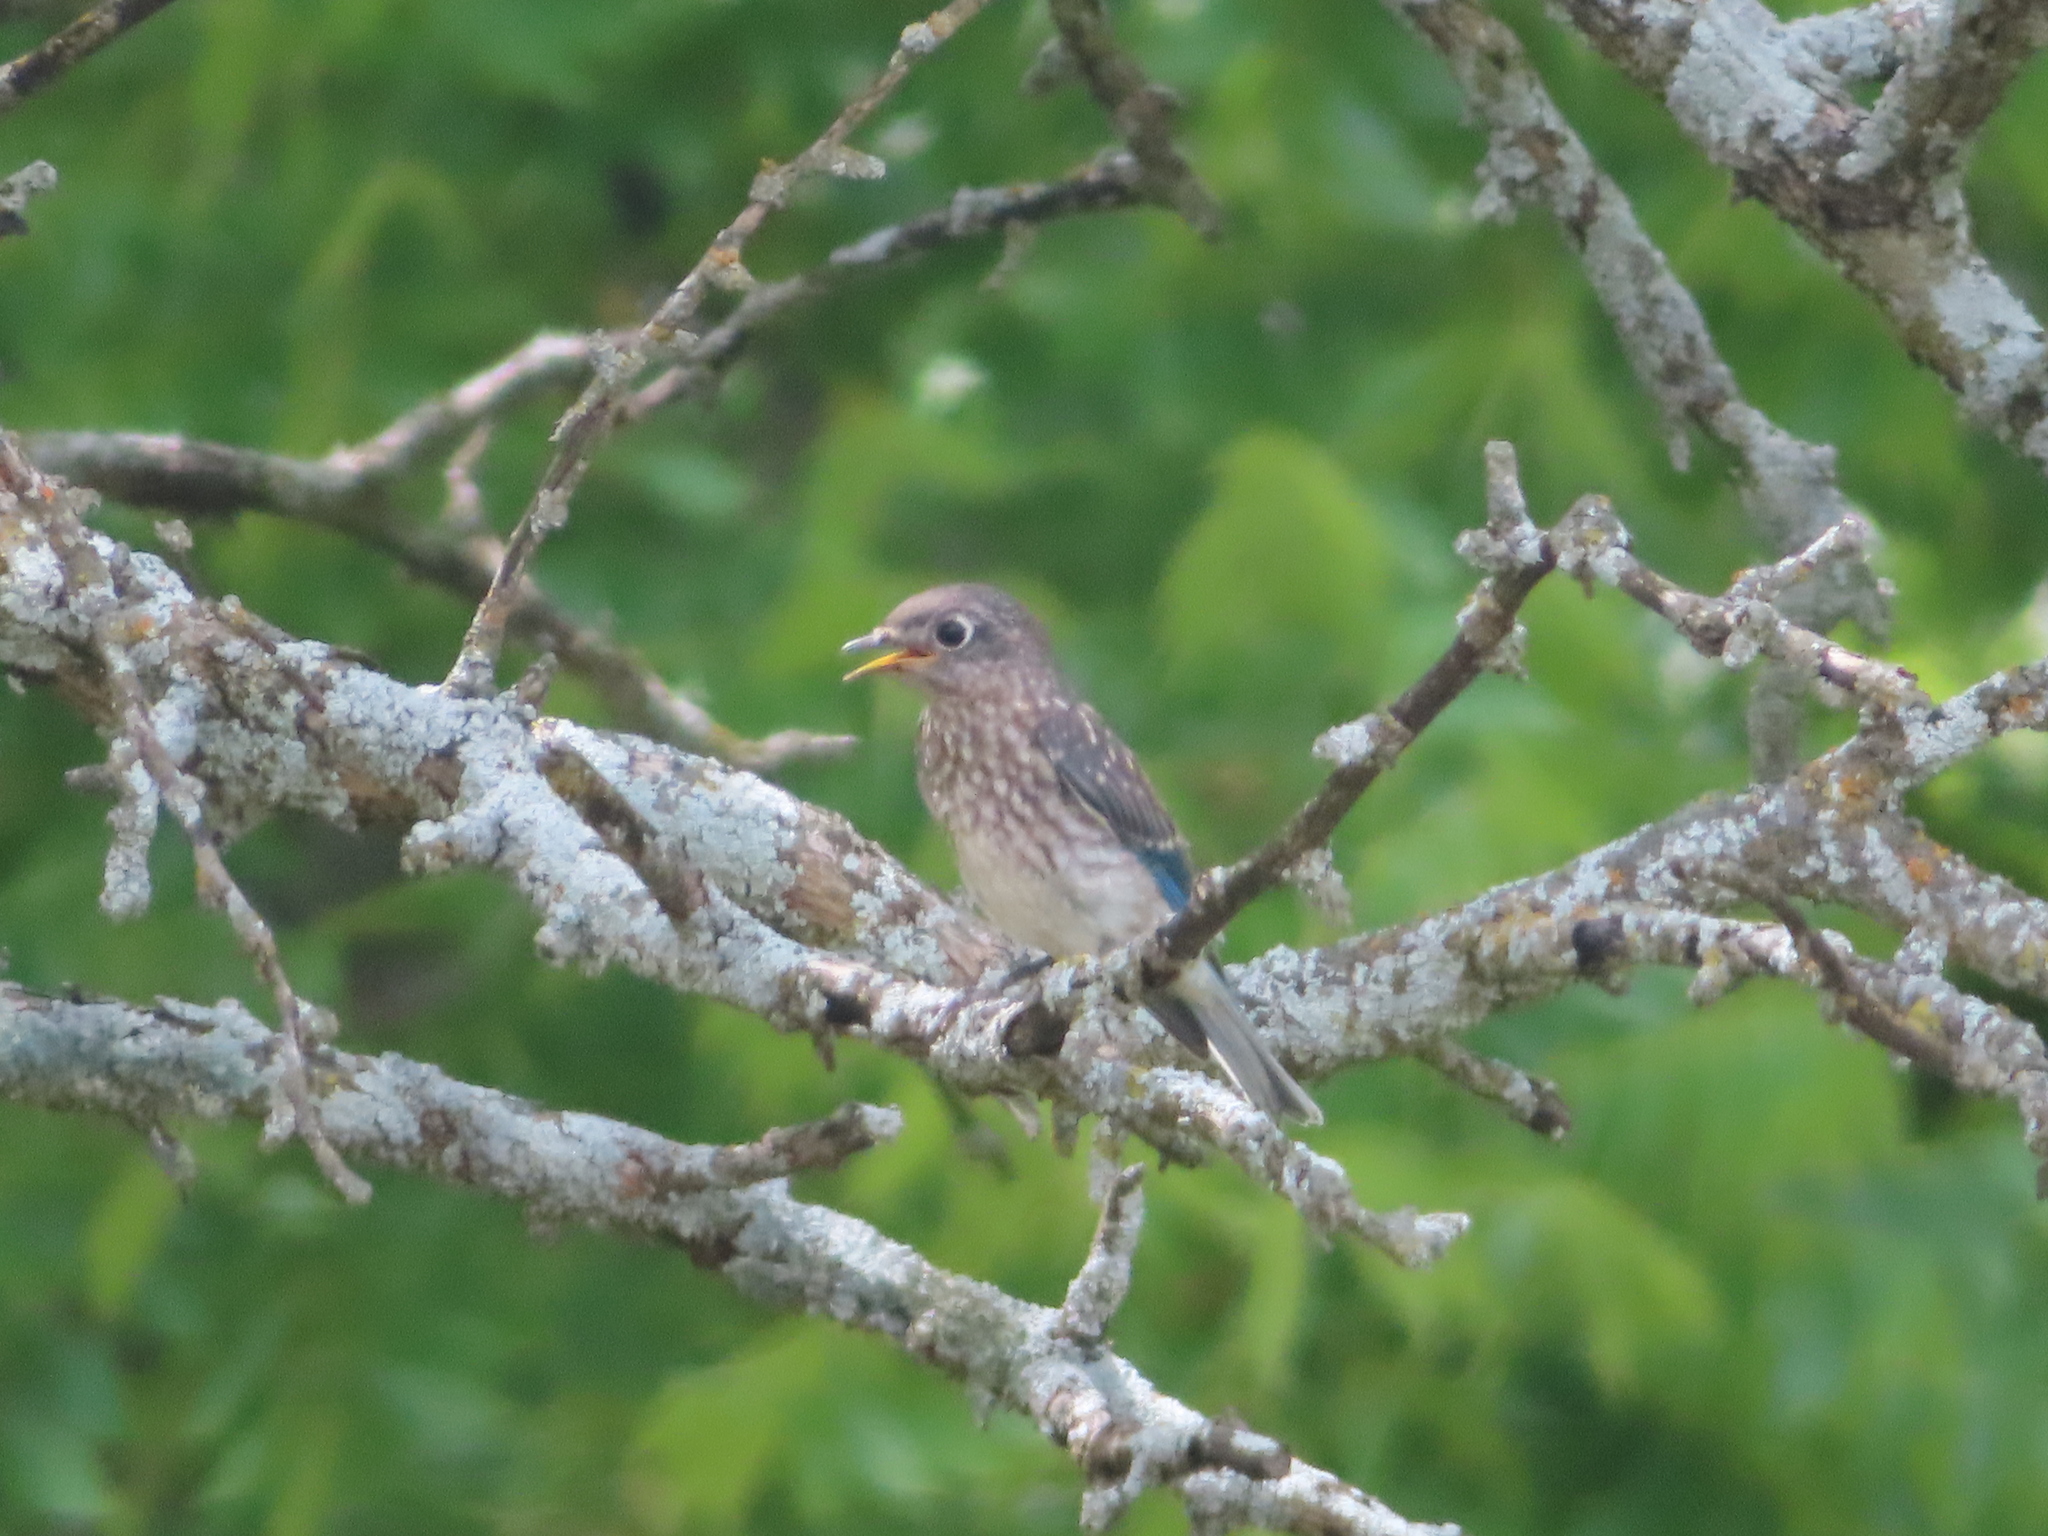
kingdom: Animalia
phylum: Chordata
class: Aves
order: Passeriformes
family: Turdidae
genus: Sialia
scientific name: Sialia sialis
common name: Eastern bluebird
